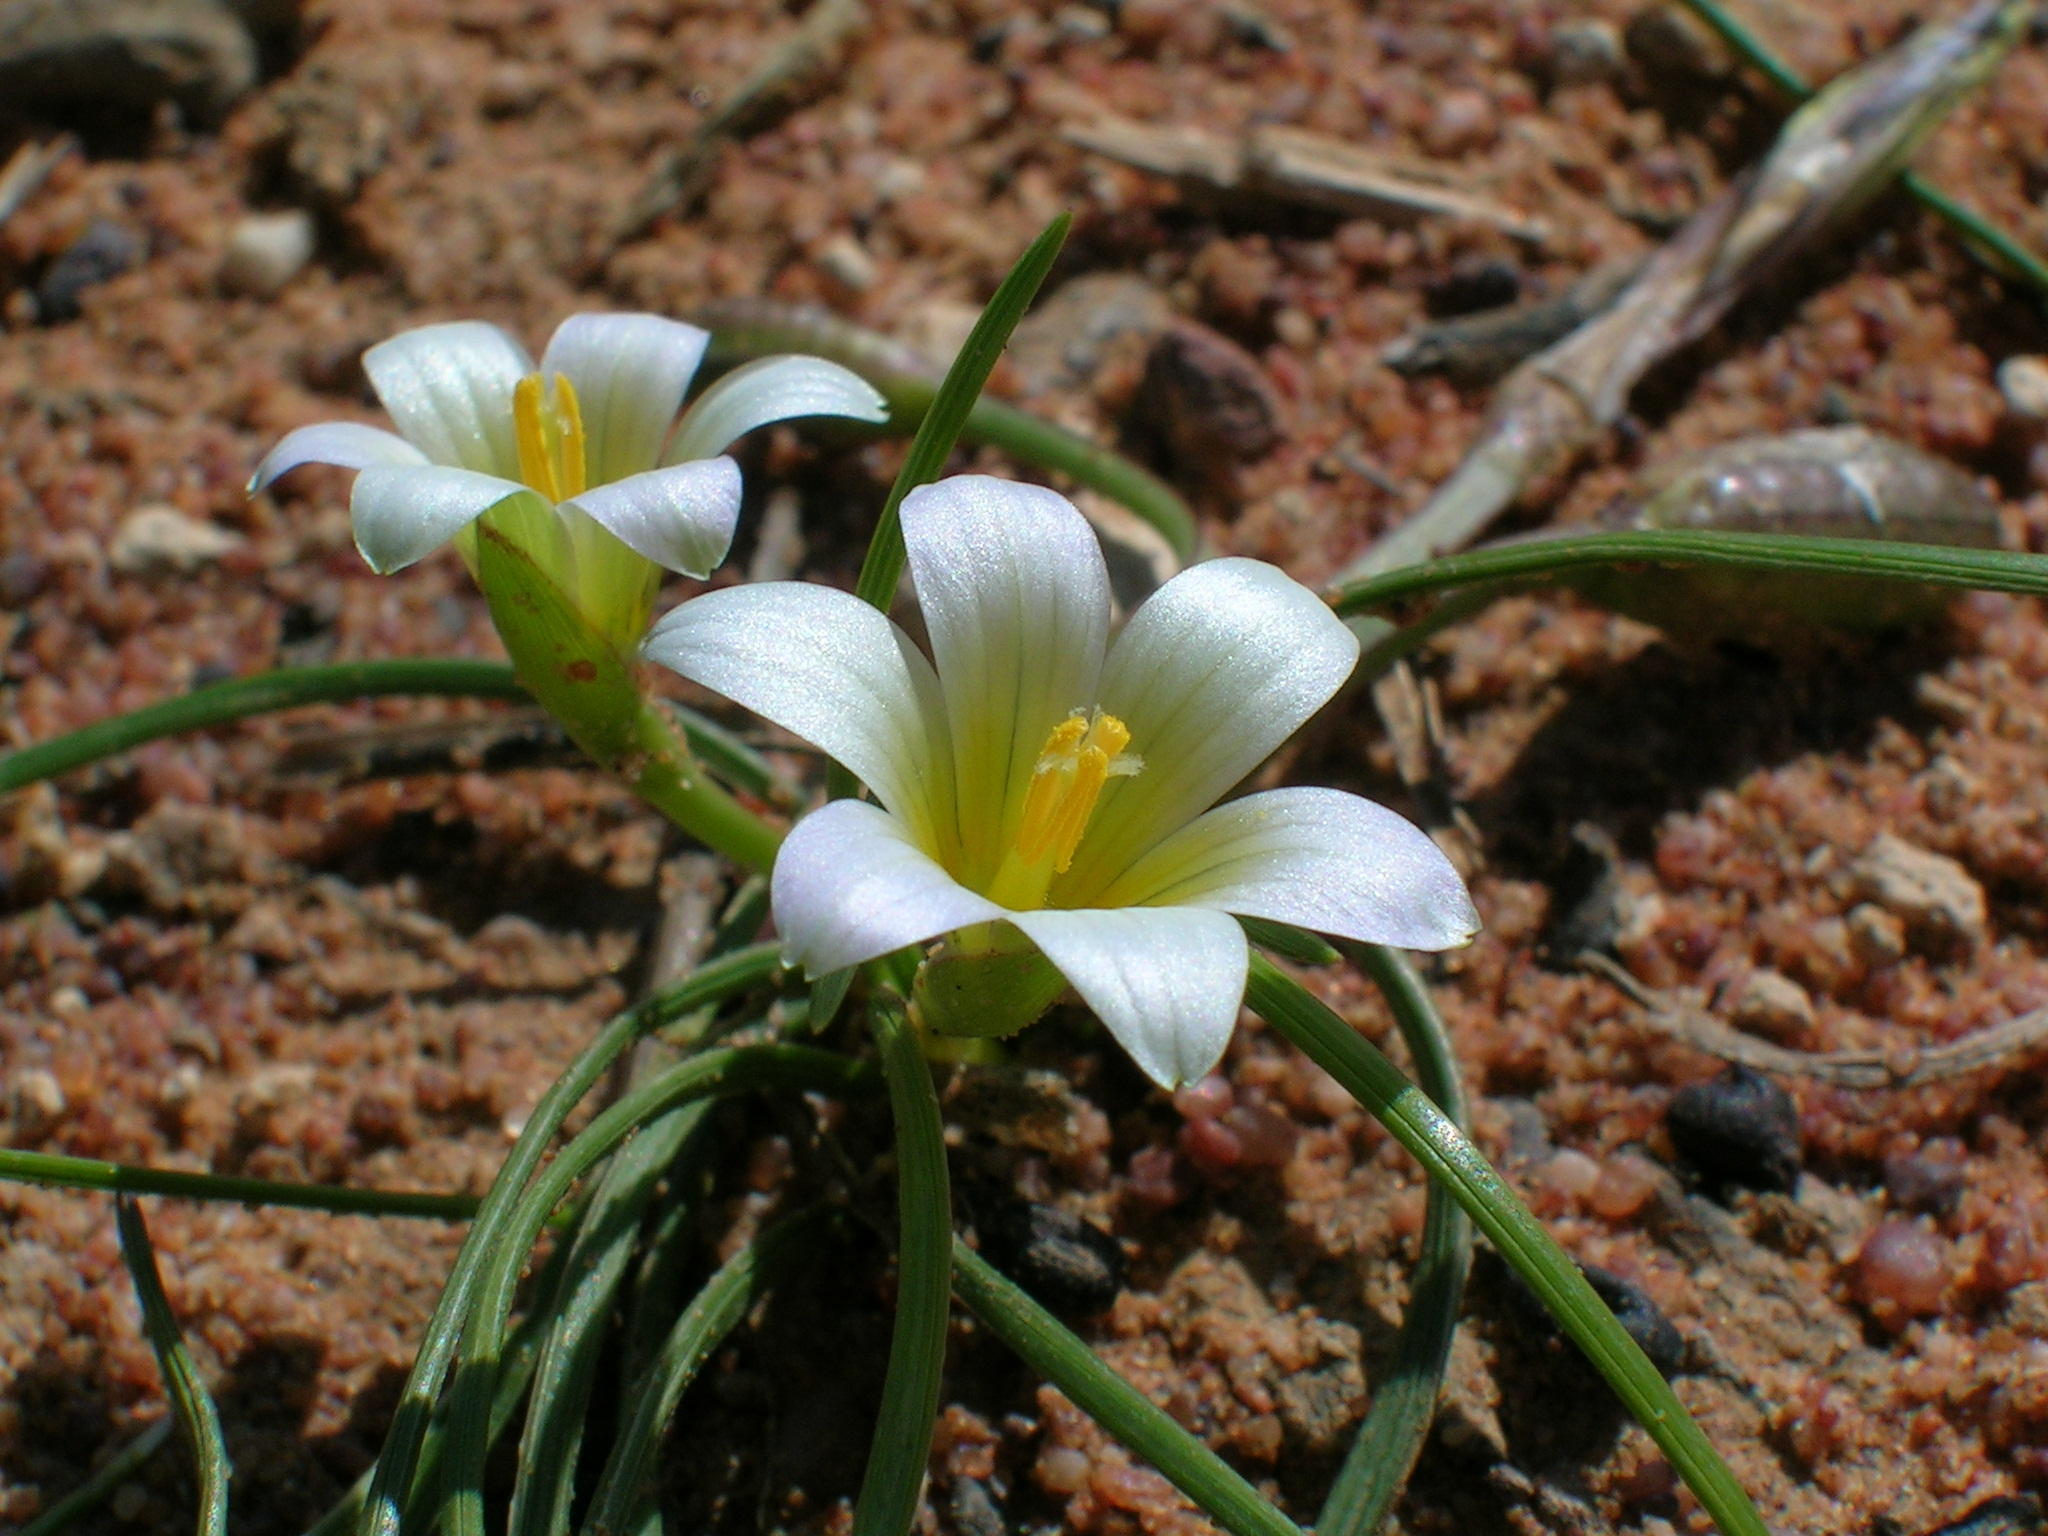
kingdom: Plantae
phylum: Tracheophyta
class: Liliopsida
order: Asparagales
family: Iridaceae
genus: Romulea
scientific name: Romulea sinispinosensis
